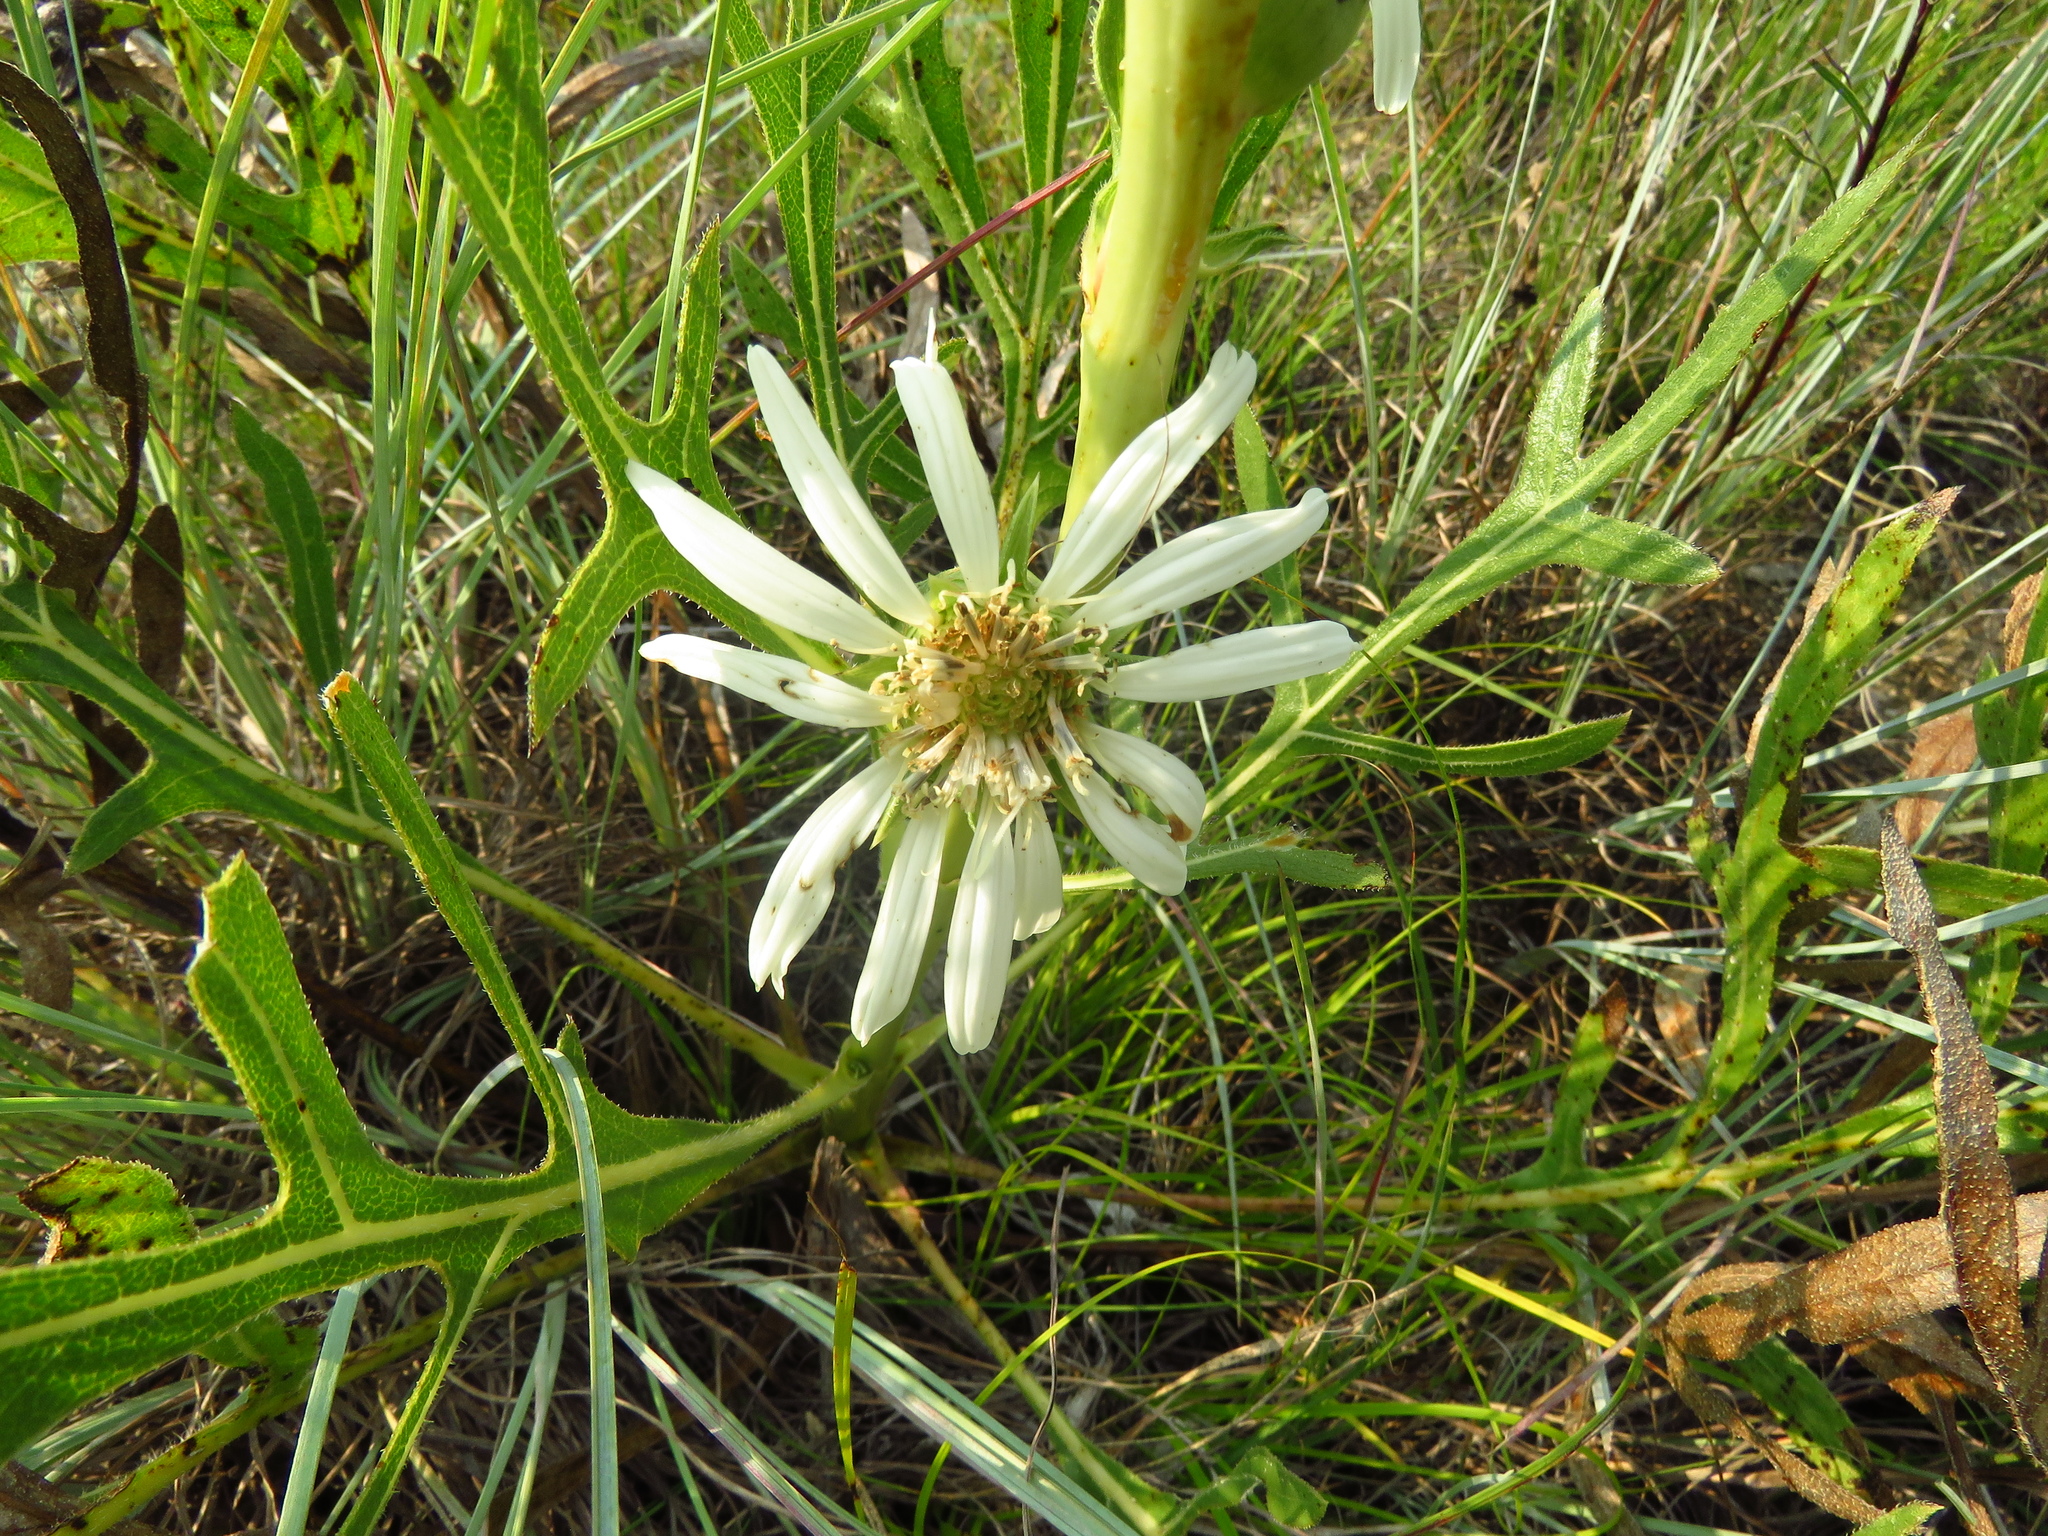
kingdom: Plantae
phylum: Tracheophyta
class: Magnoliopsida
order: Asterales
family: Asteraceae
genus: Silphium
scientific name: Silphium albiflorum
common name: White rosinweed
